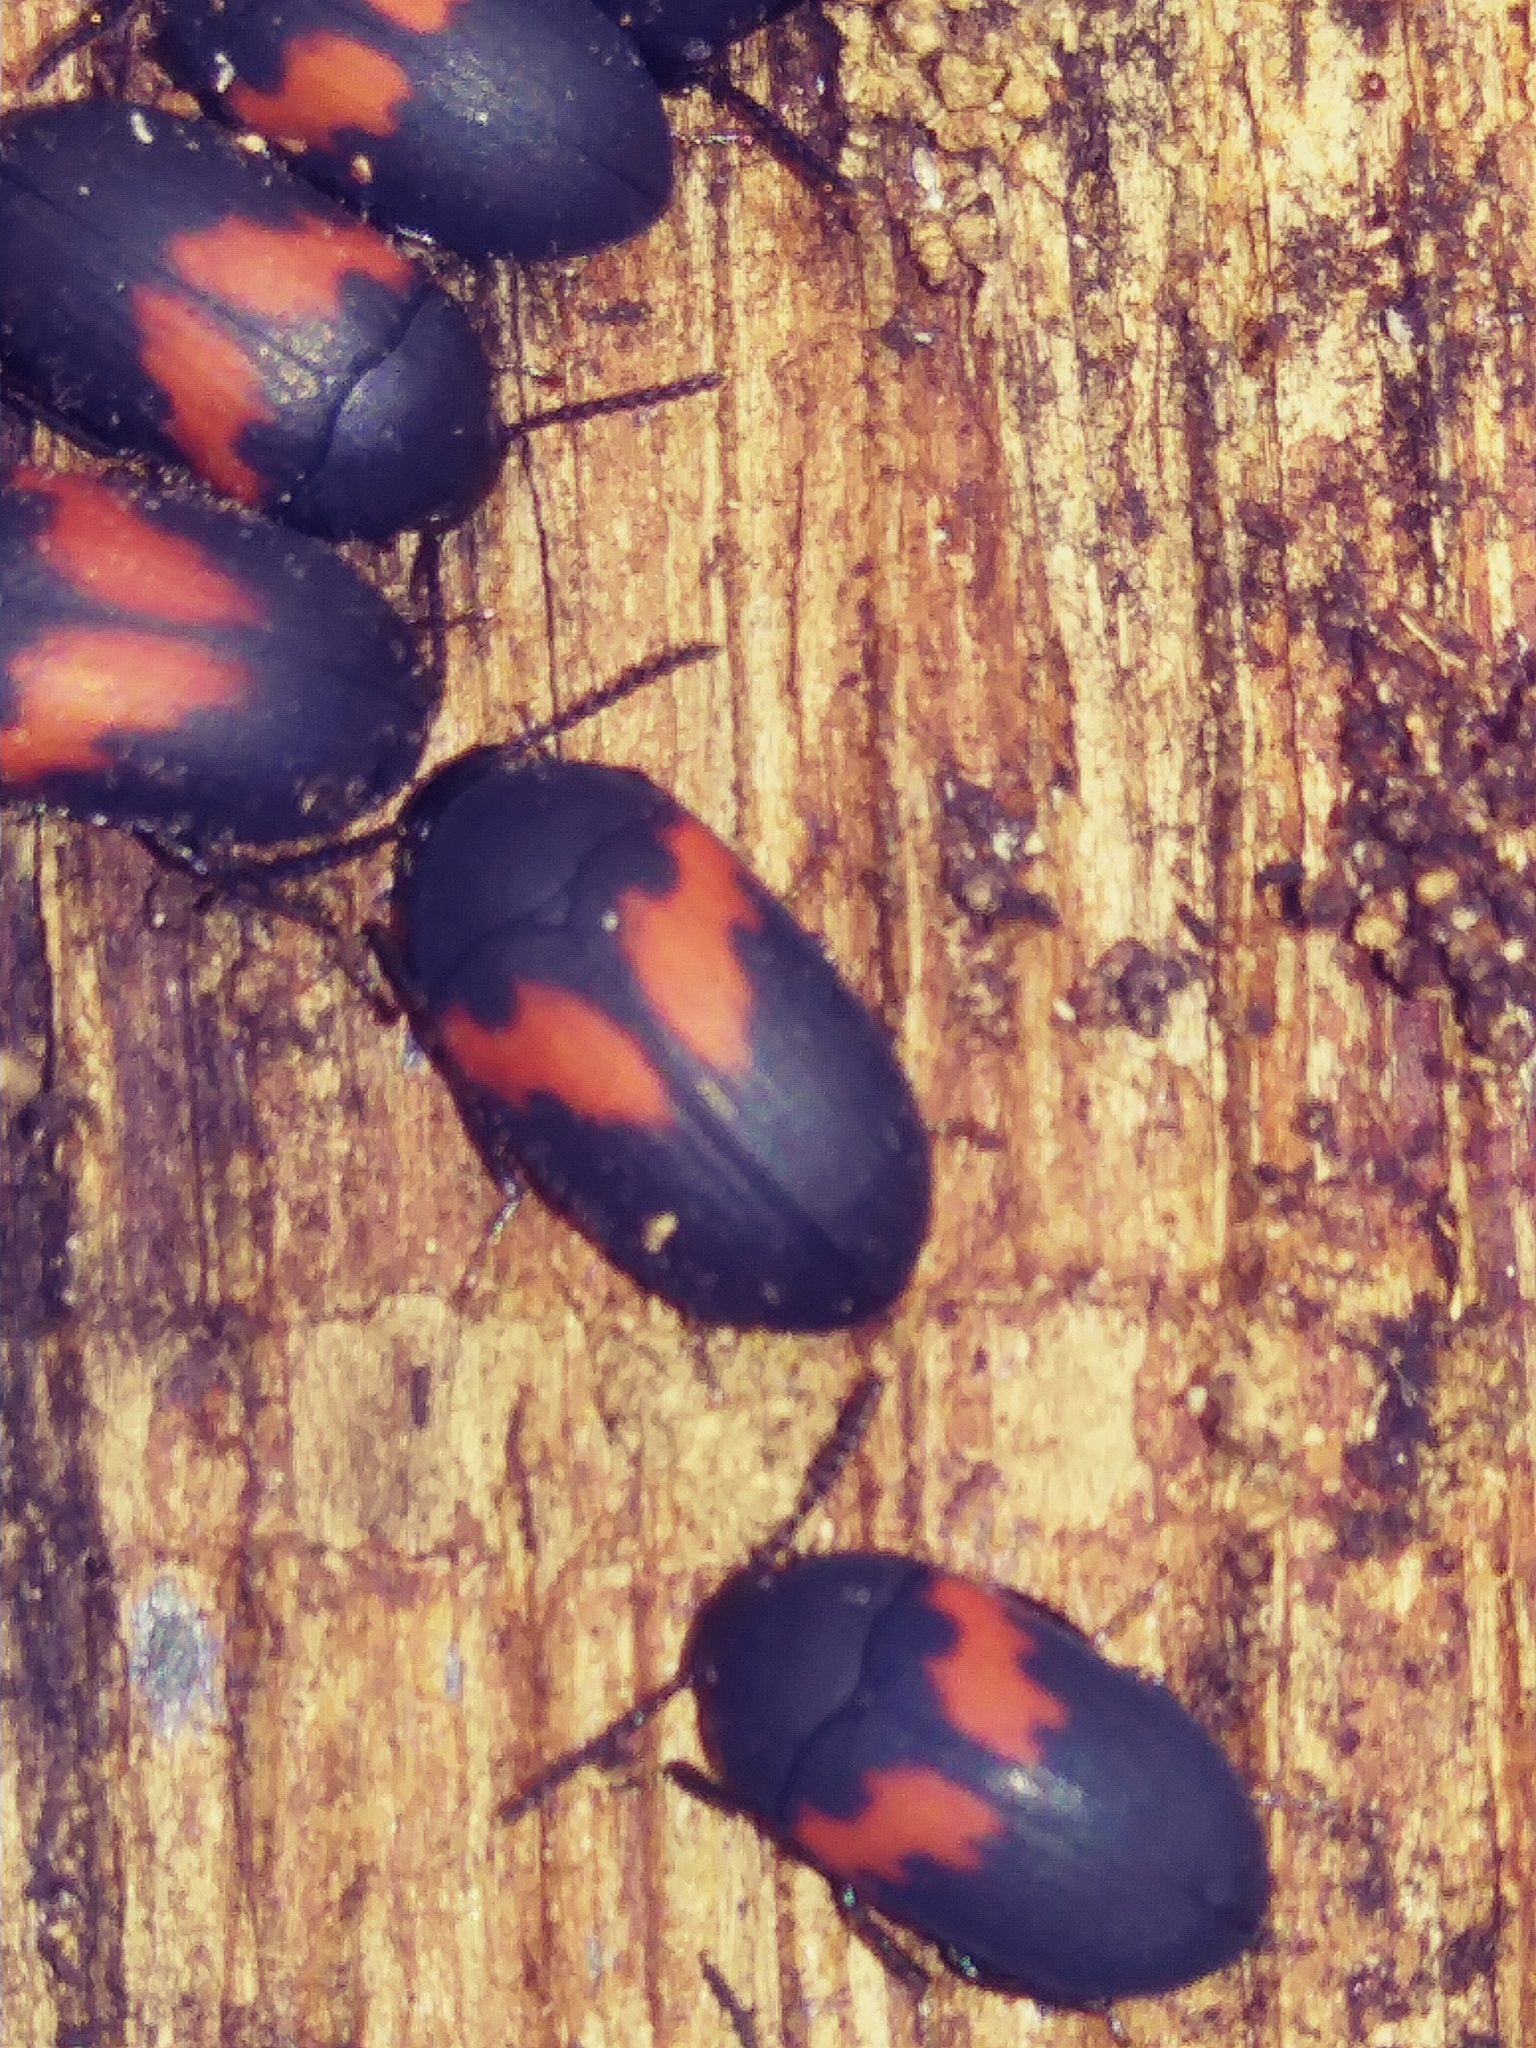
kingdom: Animalia
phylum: Arthropoda
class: Insecta
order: Coleoptera
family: Tenebrionidae
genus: Platydema
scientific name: Platydema elliptica
